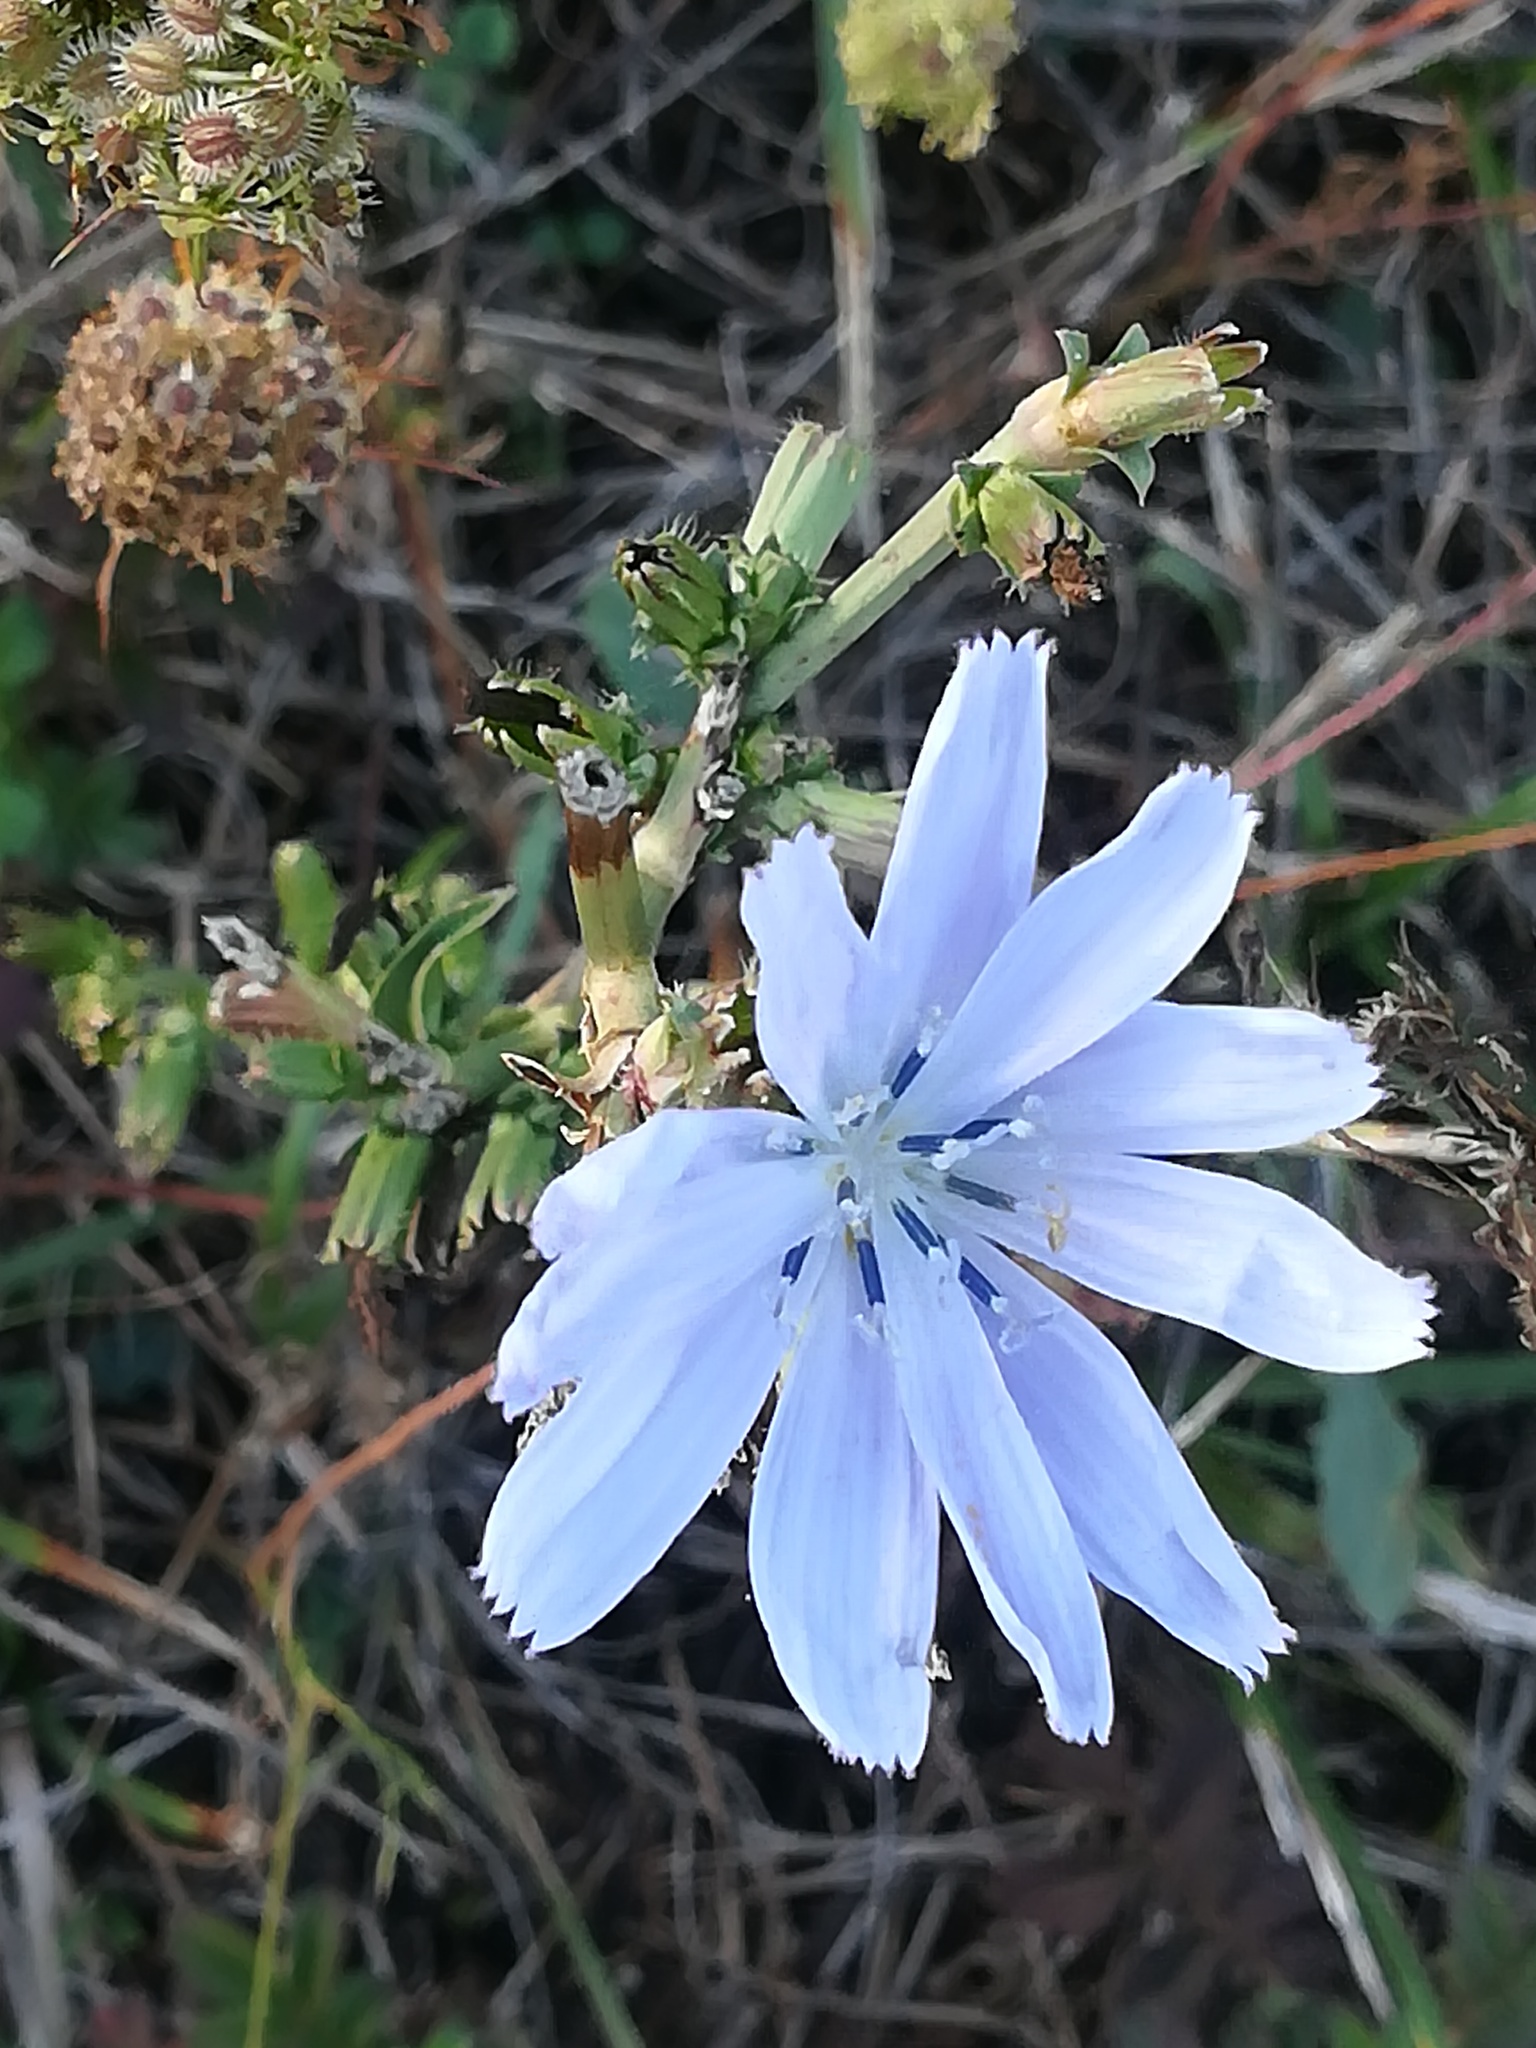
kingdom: Plantae
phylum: Tracheophyta
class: Magnoliopsida
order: Asterales
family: Asteraceae
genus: Cichorium
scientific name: Cichorium intybus
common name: Chicory
